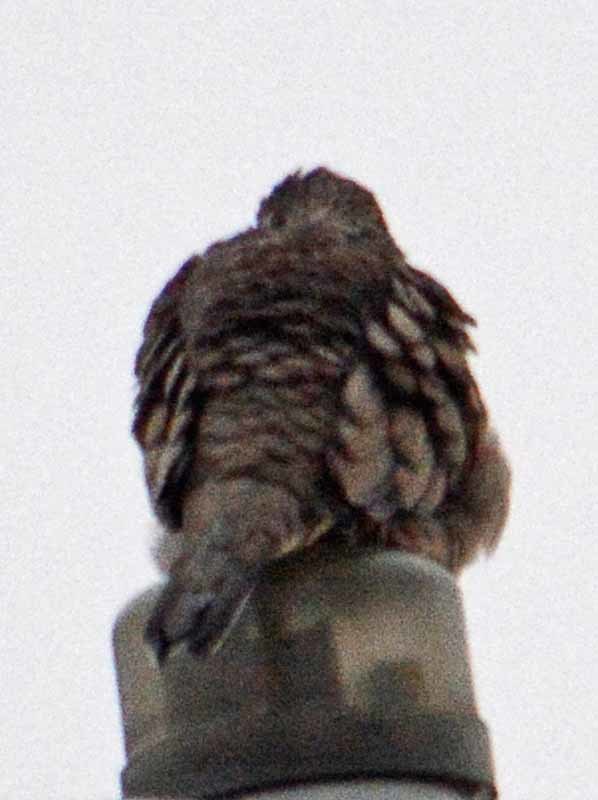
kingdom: Animalia
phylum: Chordata
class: Aves
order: Columbiformes
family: Columbidae
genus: Columbina
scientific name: Columbina inca
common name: Inca dove
